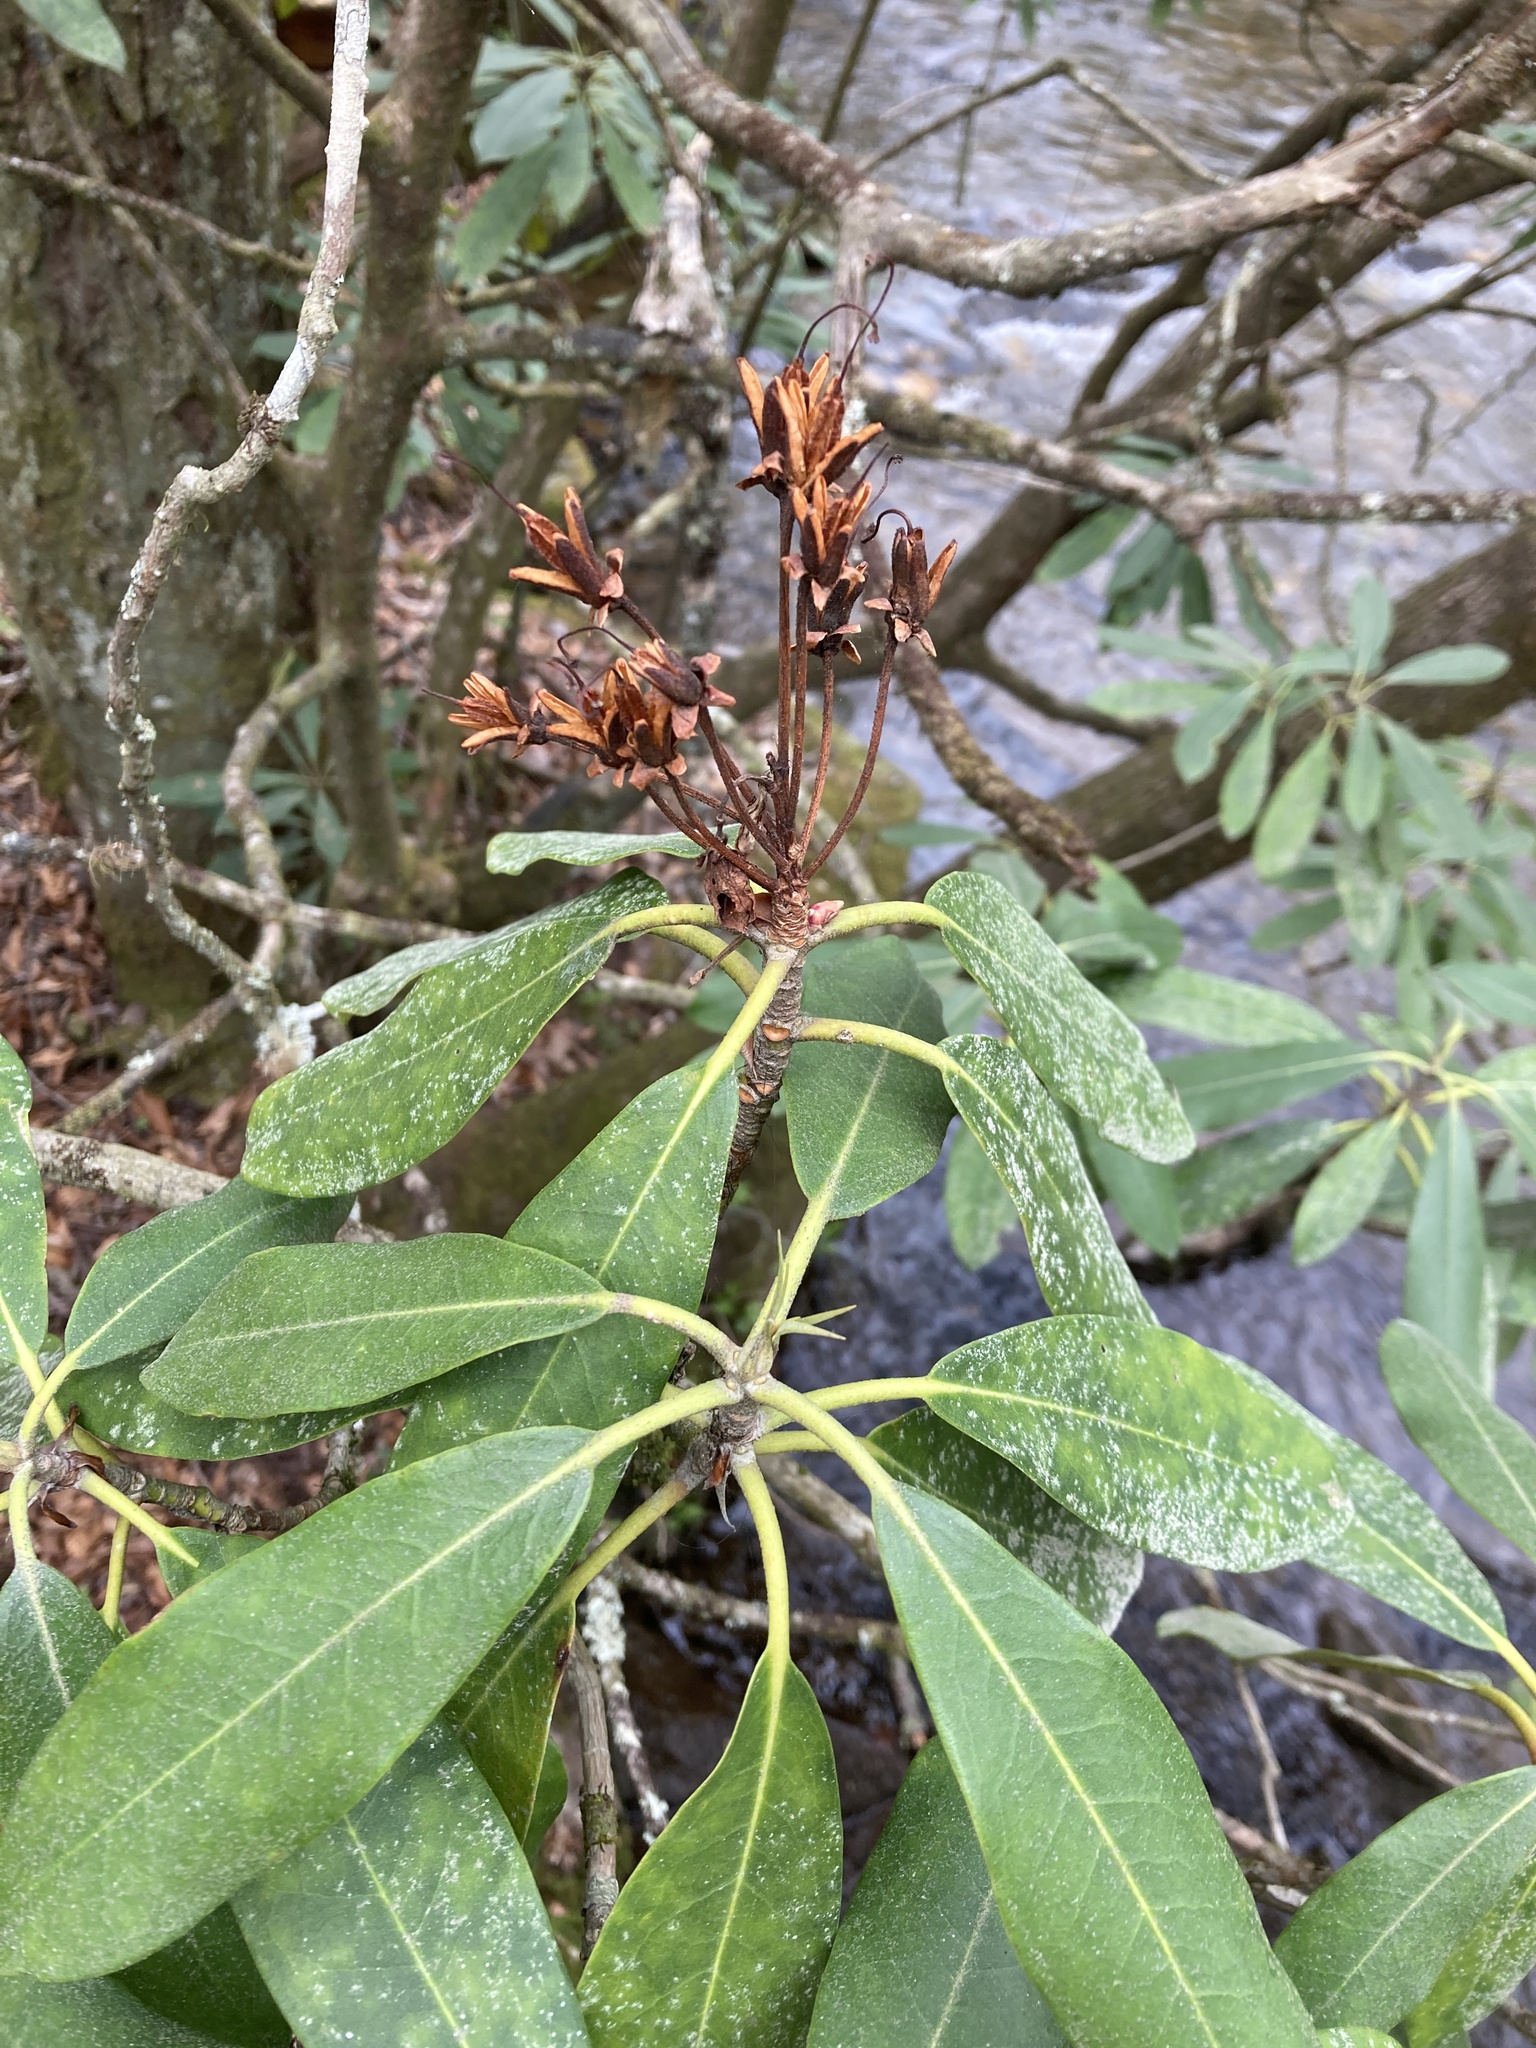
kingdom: Plantae
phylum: Tracheophyta
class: Magnoliopsida
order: Ericales
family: Ericaceae
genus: Rhododendron
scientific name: Rhododendron maximum
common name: Great rhododendron
